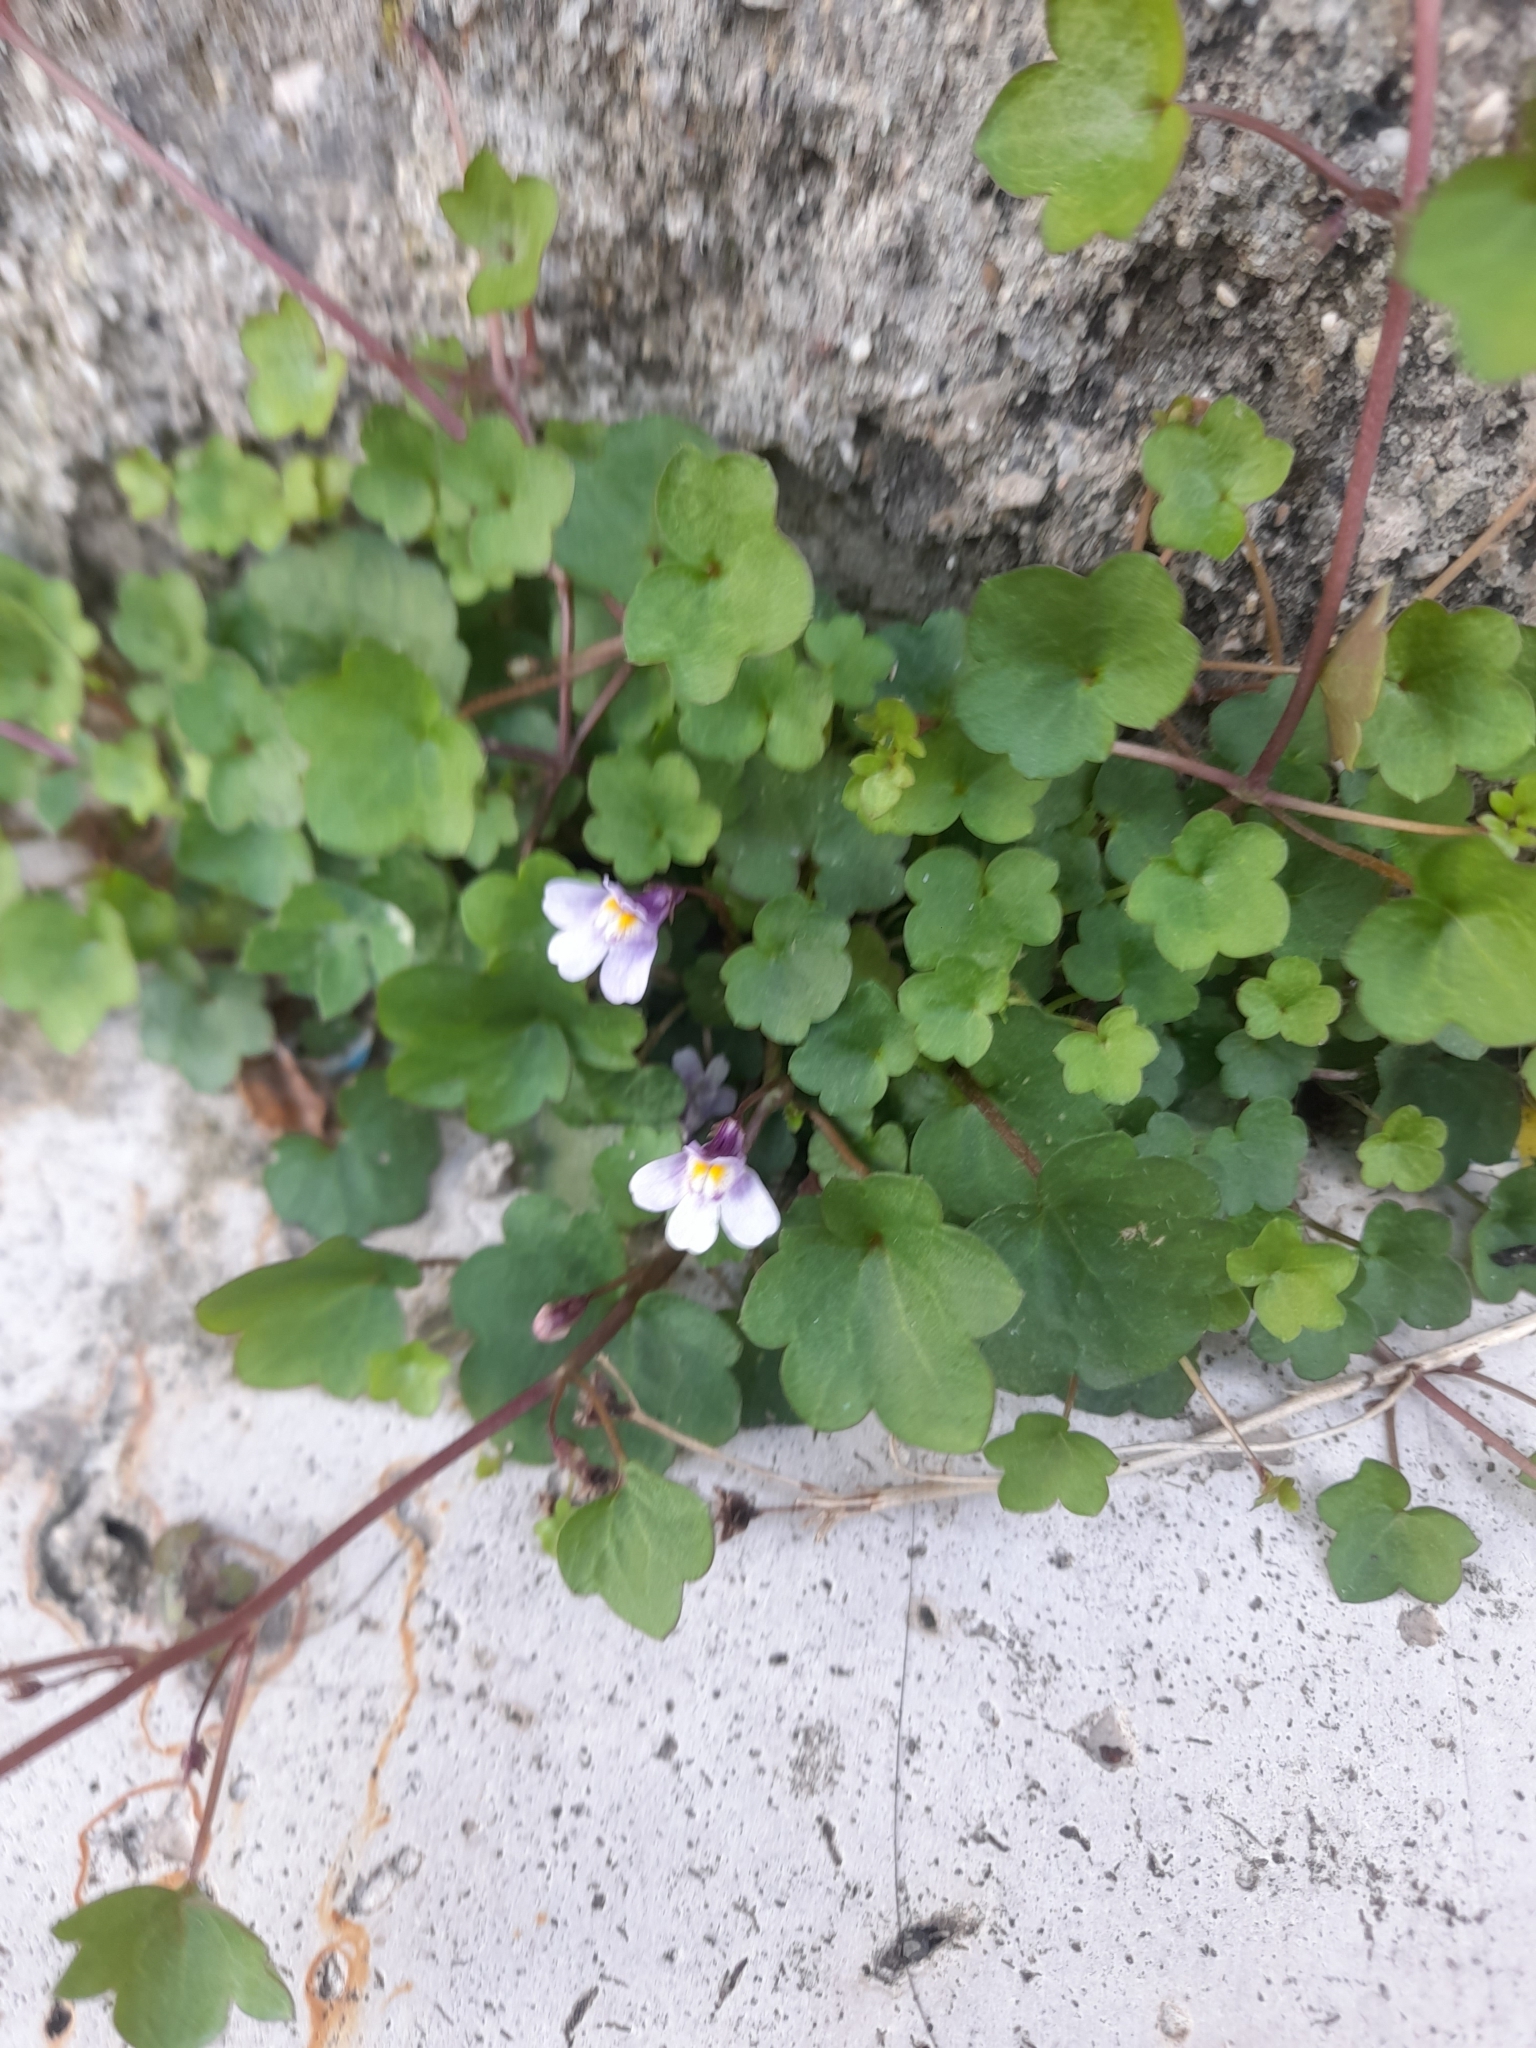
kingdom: Plantae
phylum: Tracheophyta
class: Magnoliopsida
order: Lamiales
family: Plantaginaceae
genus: Cymbalaria
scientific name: Cymbalaria muralis
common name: Ivy-leaved toadflax
